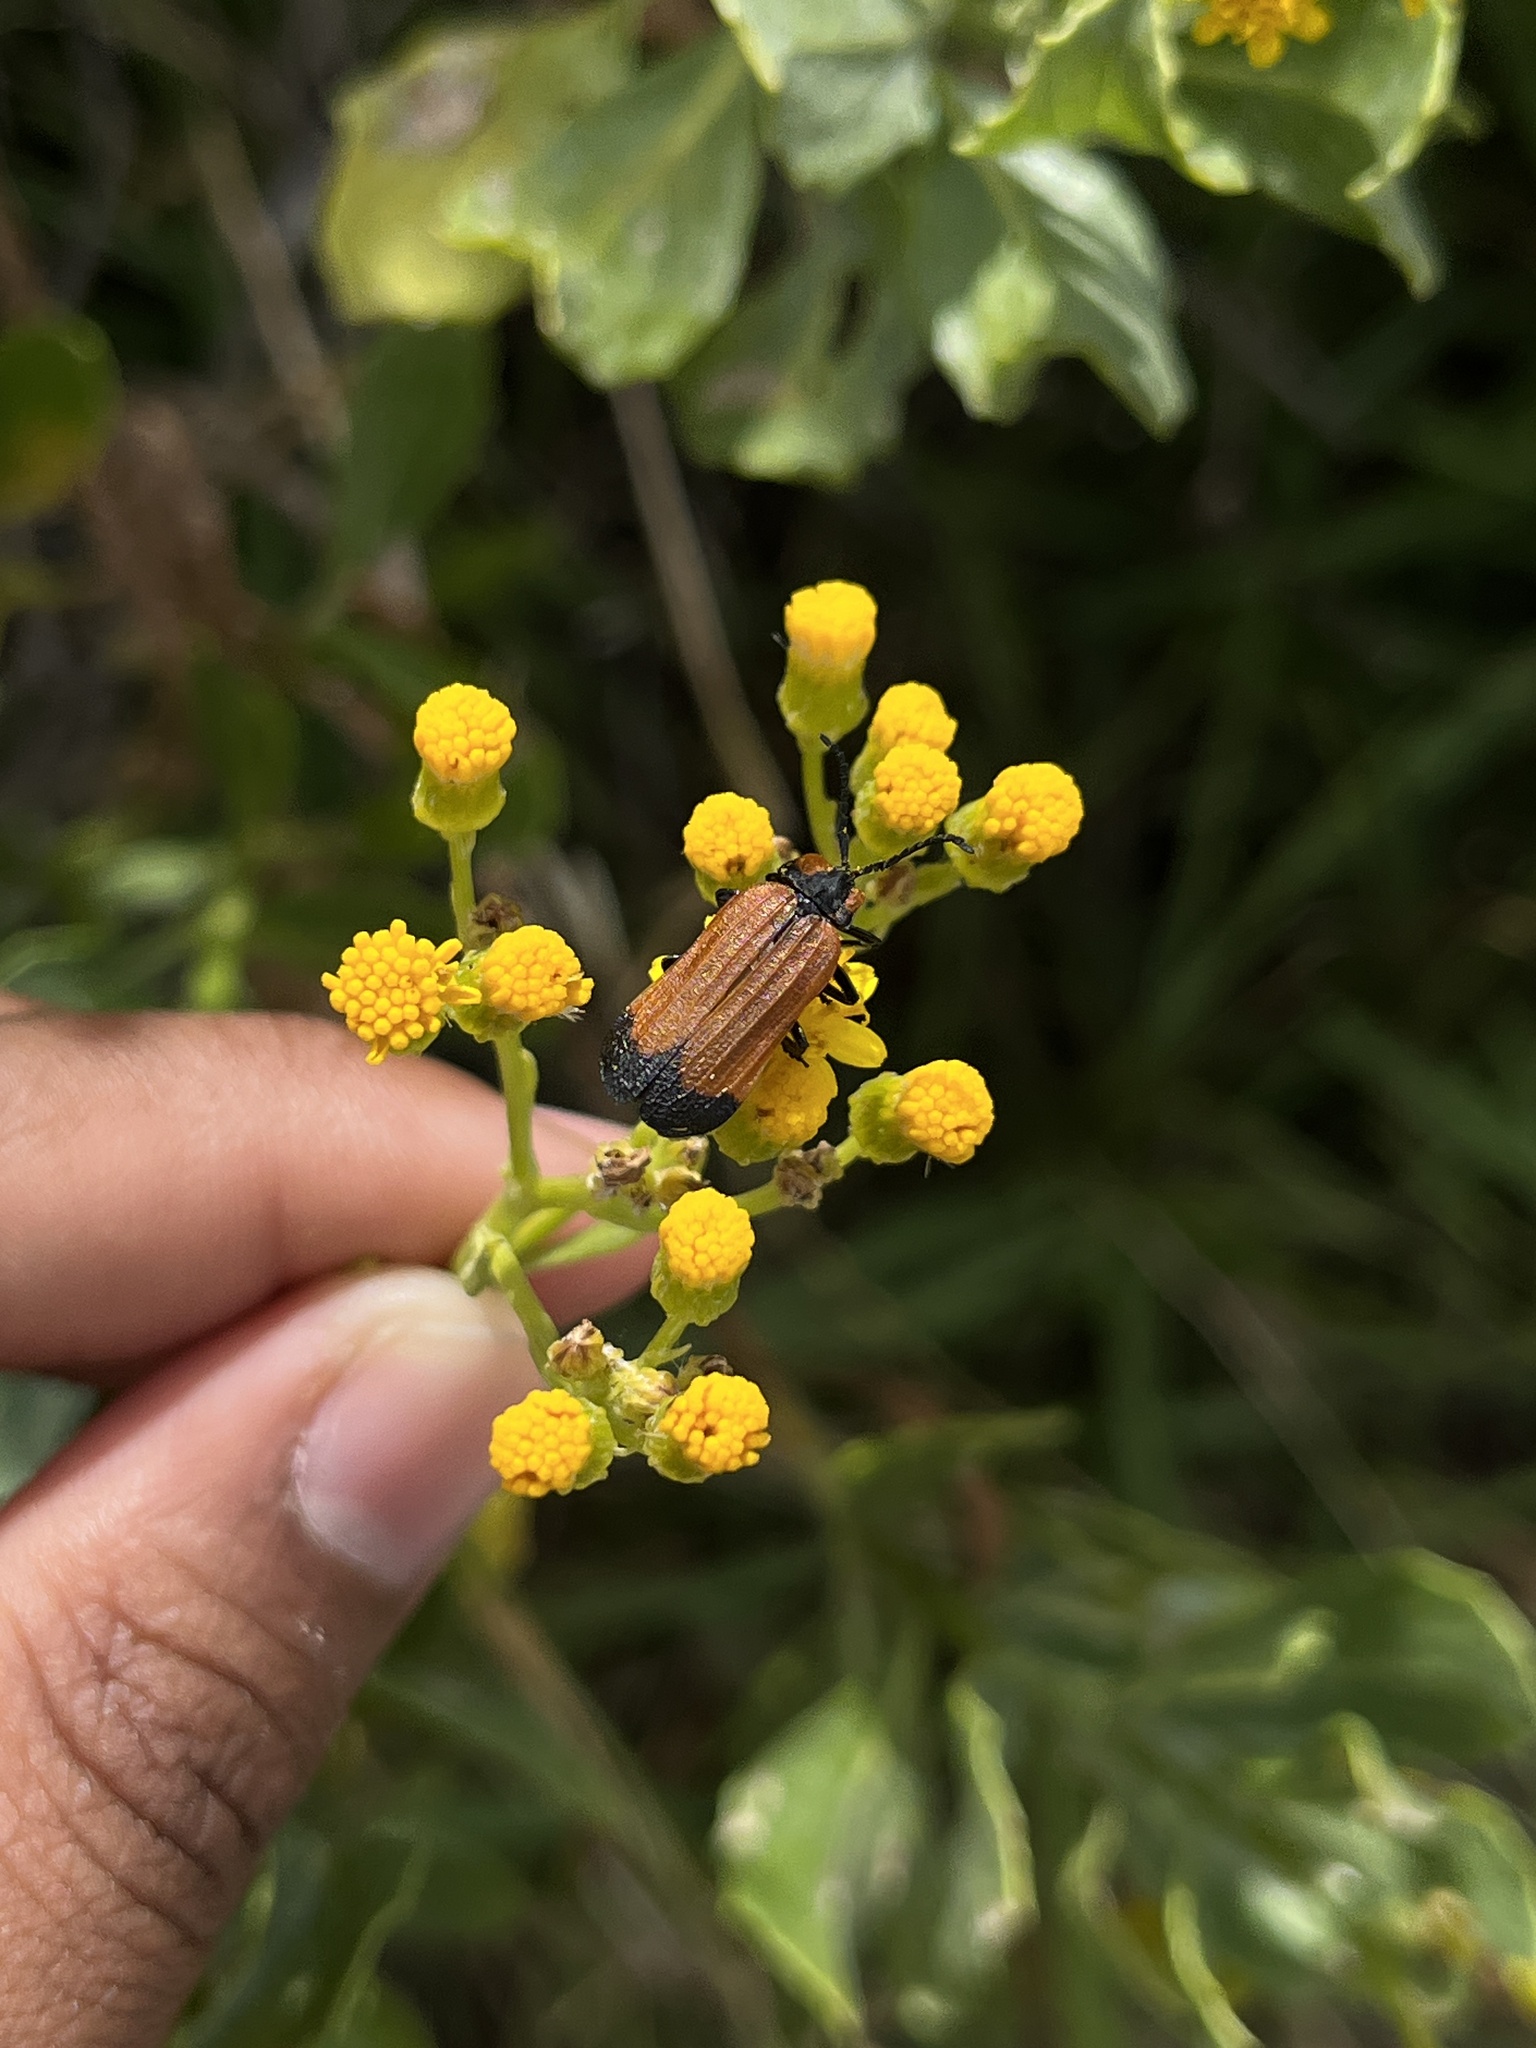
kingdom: Animalia
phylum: Arthropoda
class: Insecta
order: Coleoptera
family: Lycidae
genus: Lycus
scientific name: Lycus
